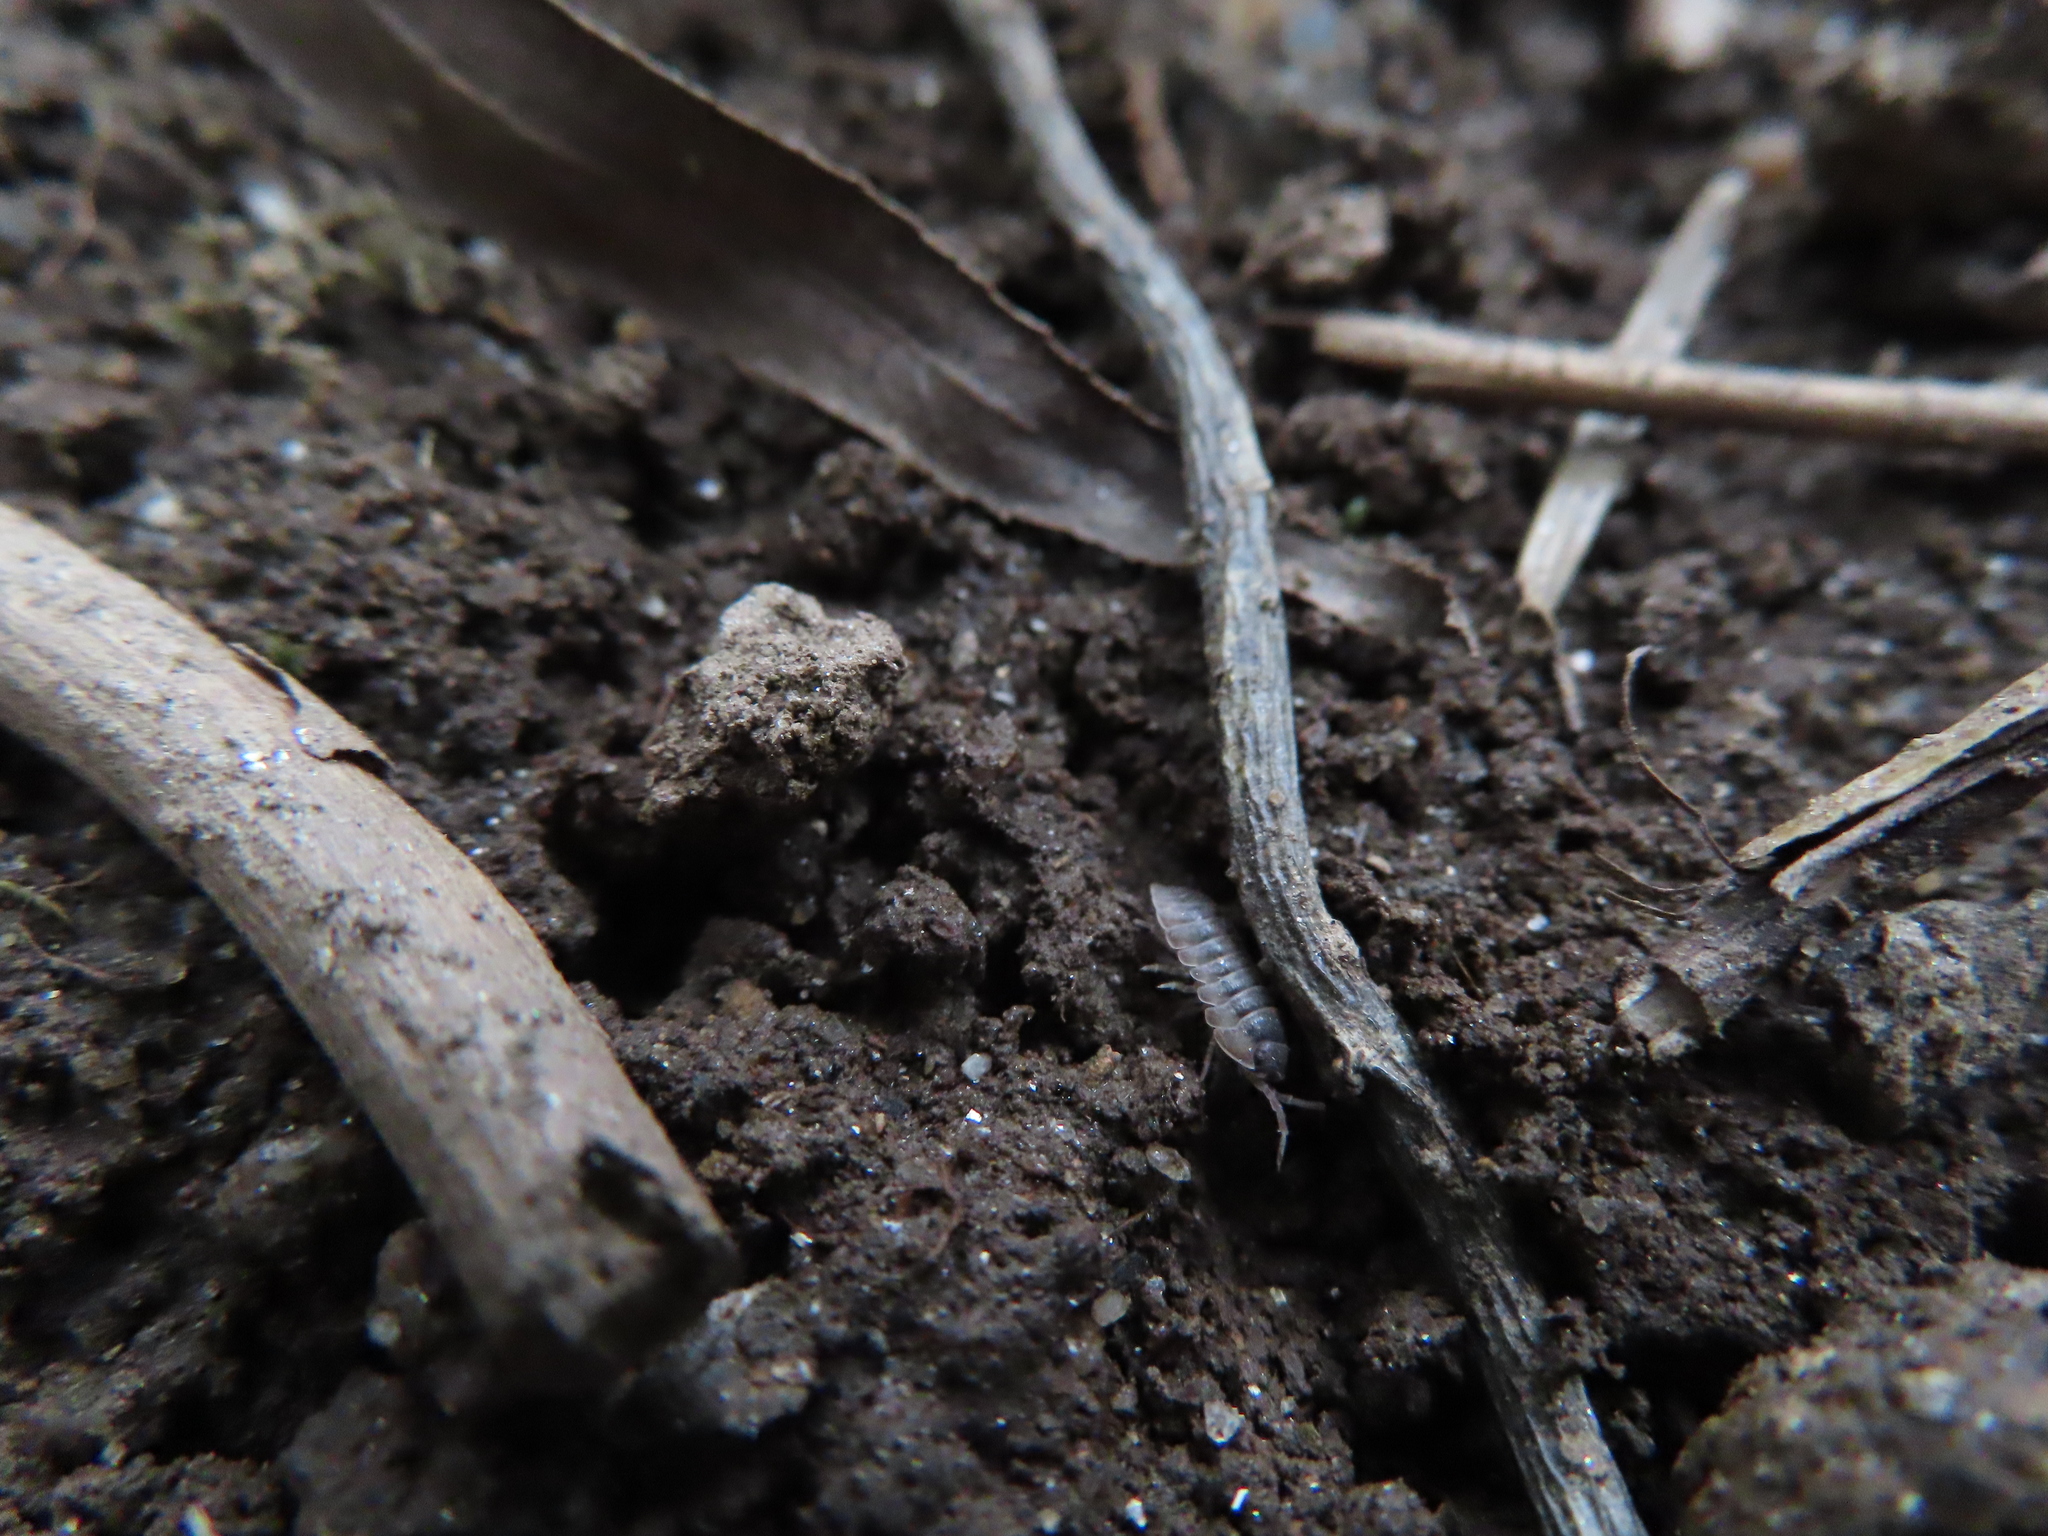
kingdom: Animalia
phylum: Arthropoda
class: Malacostraca
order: Isopoda
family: Armadillidiidae
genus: Armadillidium
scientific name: Armadillidium nasatum
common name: Isopod
